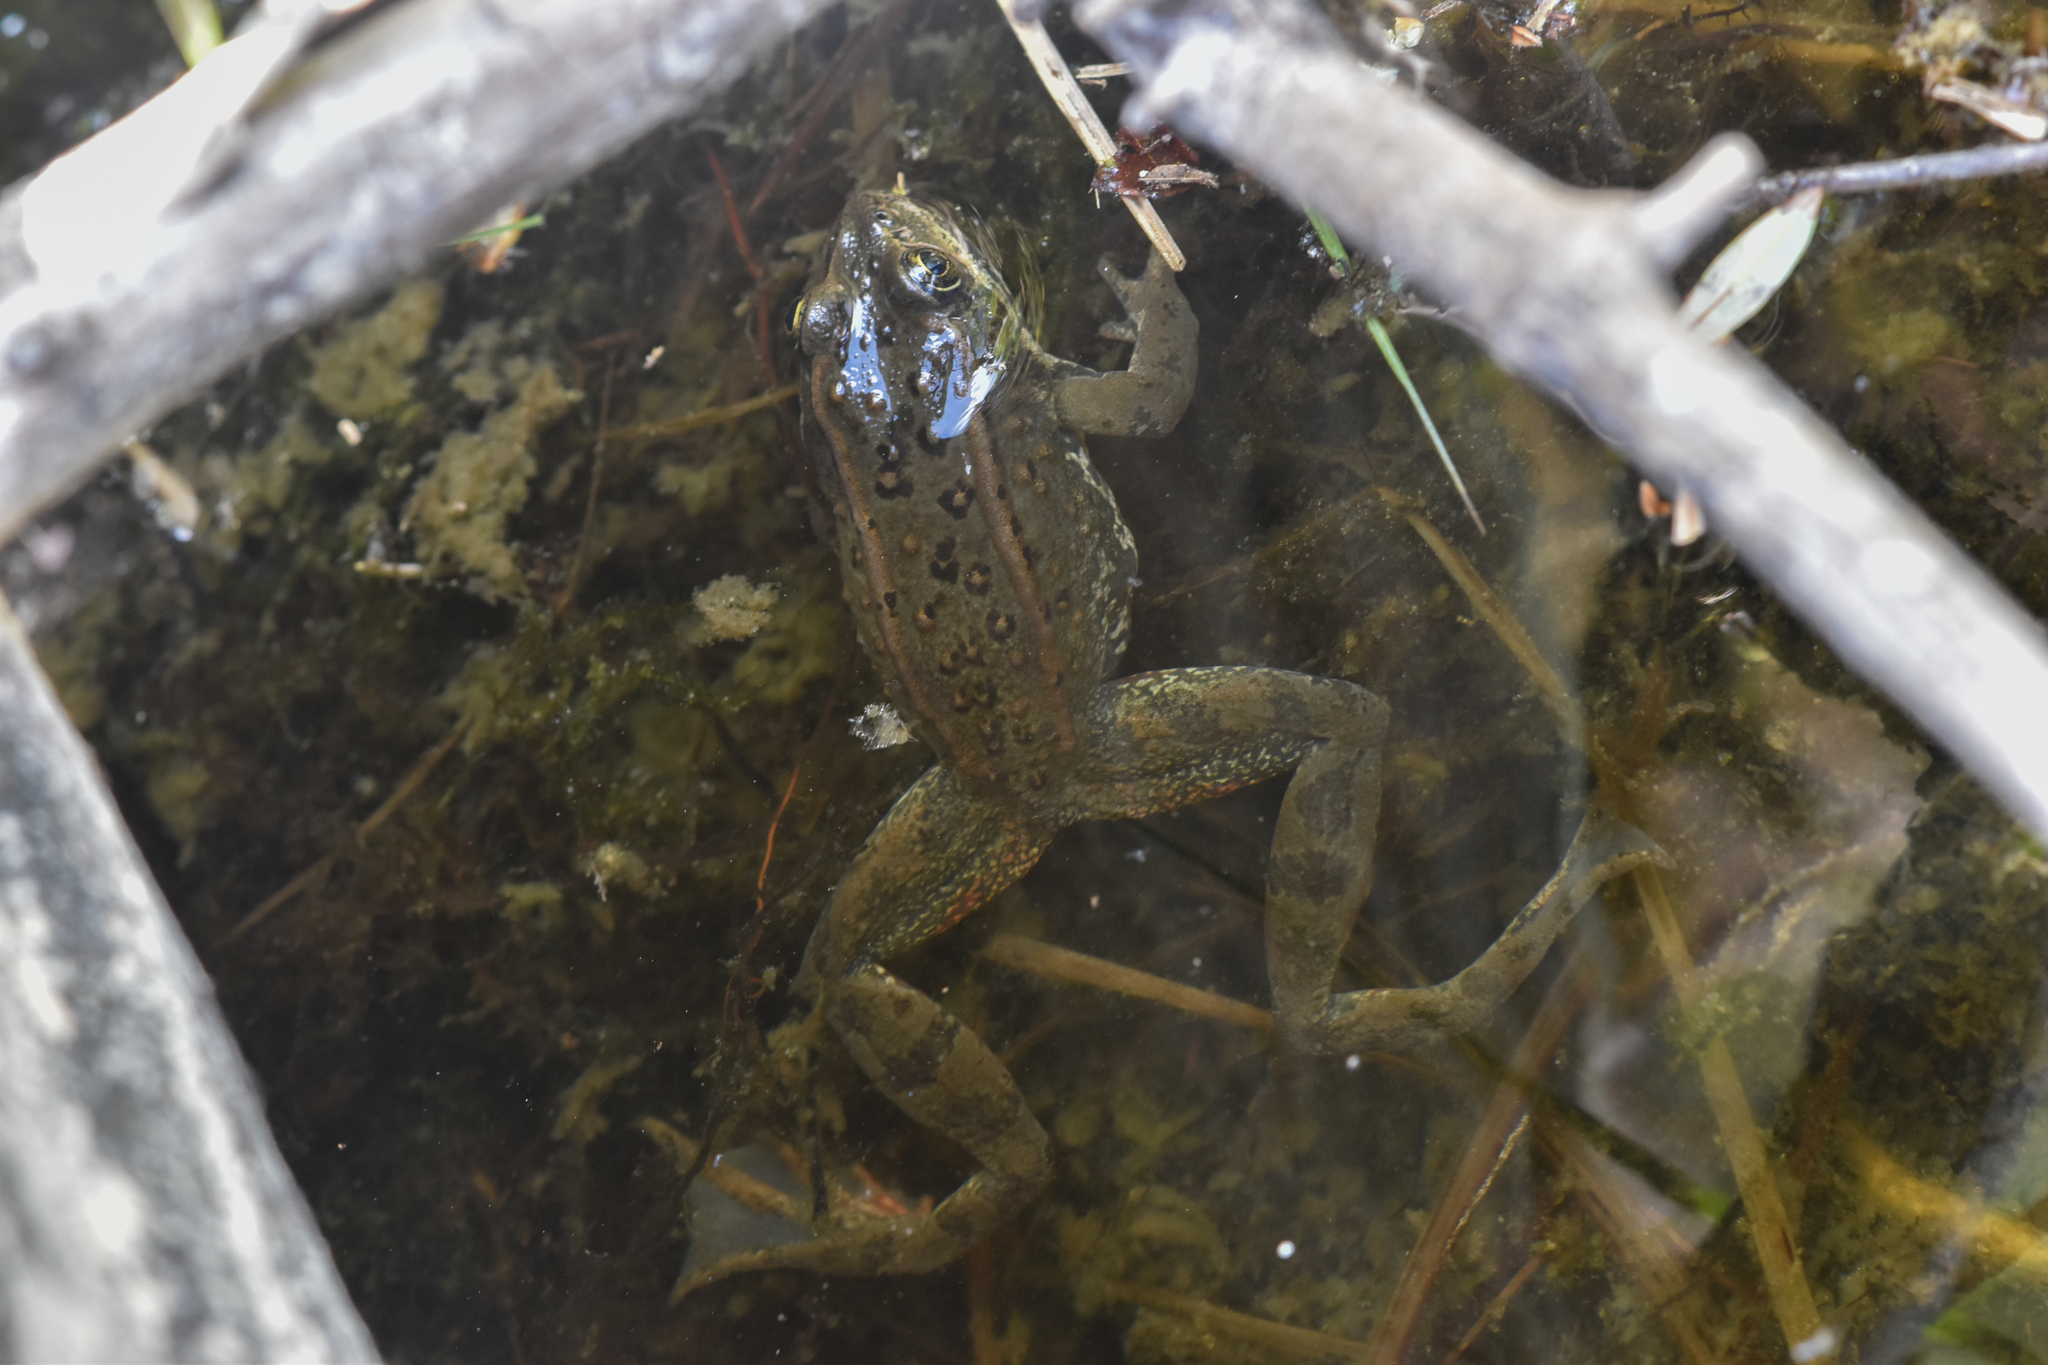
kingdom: Animalia
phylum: Chordata
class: Amphibia
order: Anura
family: Ranidae
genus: Rana
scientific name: Rana luteiventris
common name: Columbia spotted frog
